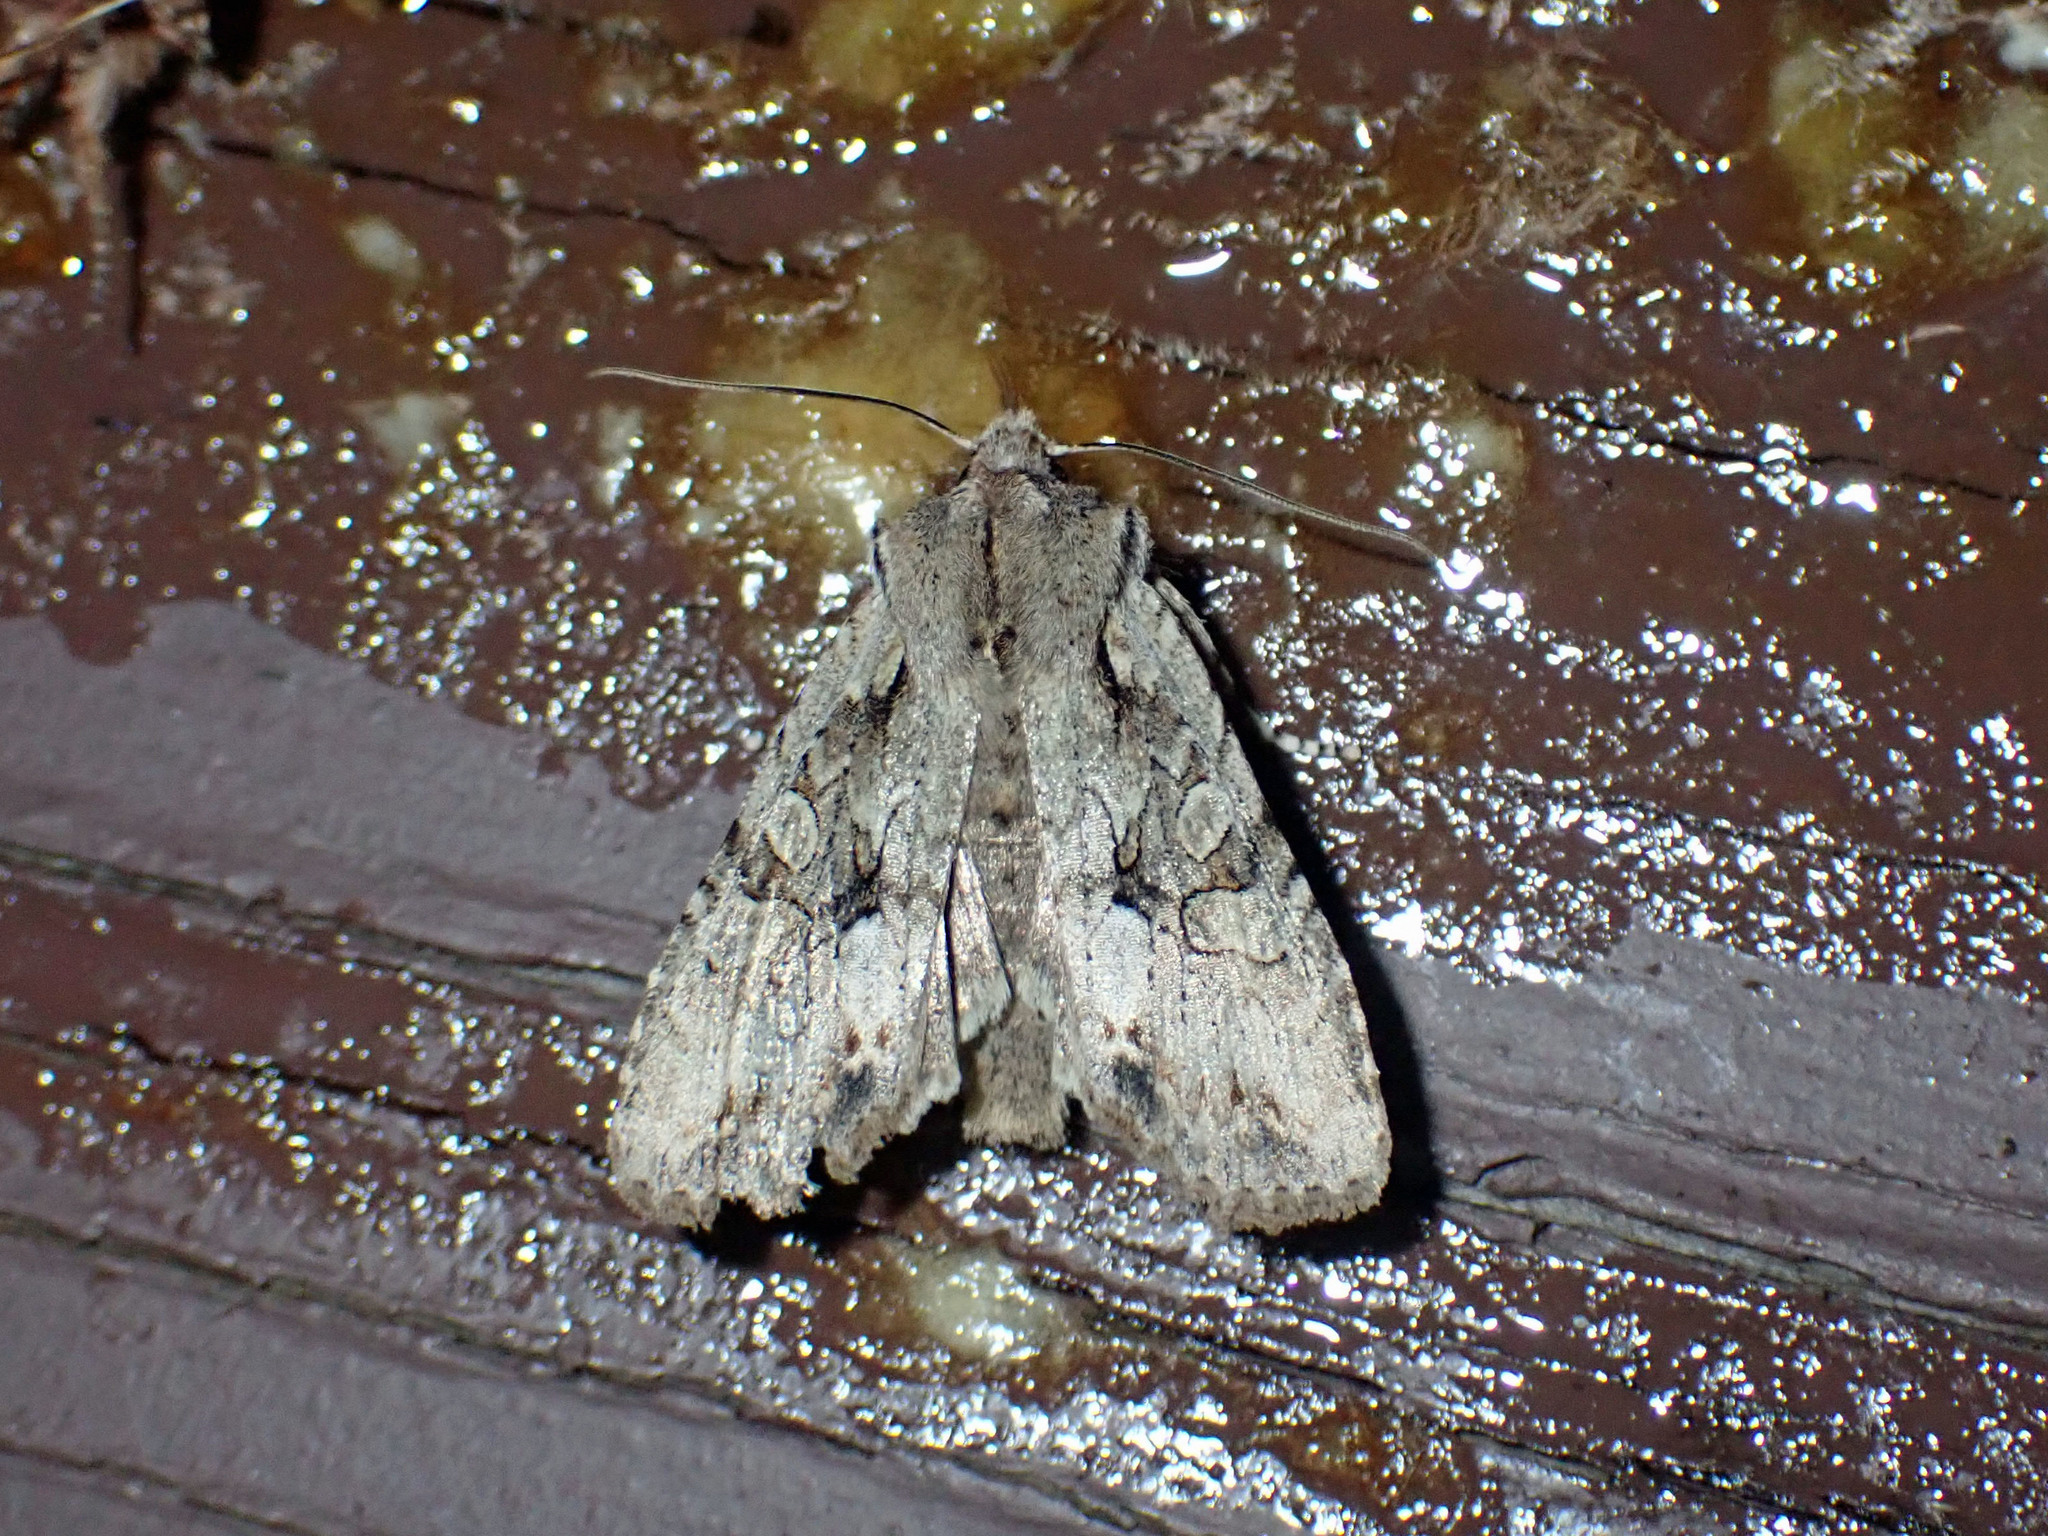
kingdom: Animalia
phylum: Arthropoda
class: Insecta
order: Lepidoptera
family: Noctuidae
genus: Lithophane
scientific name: Lithophane disposita
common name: Dashed gray pinion moth
